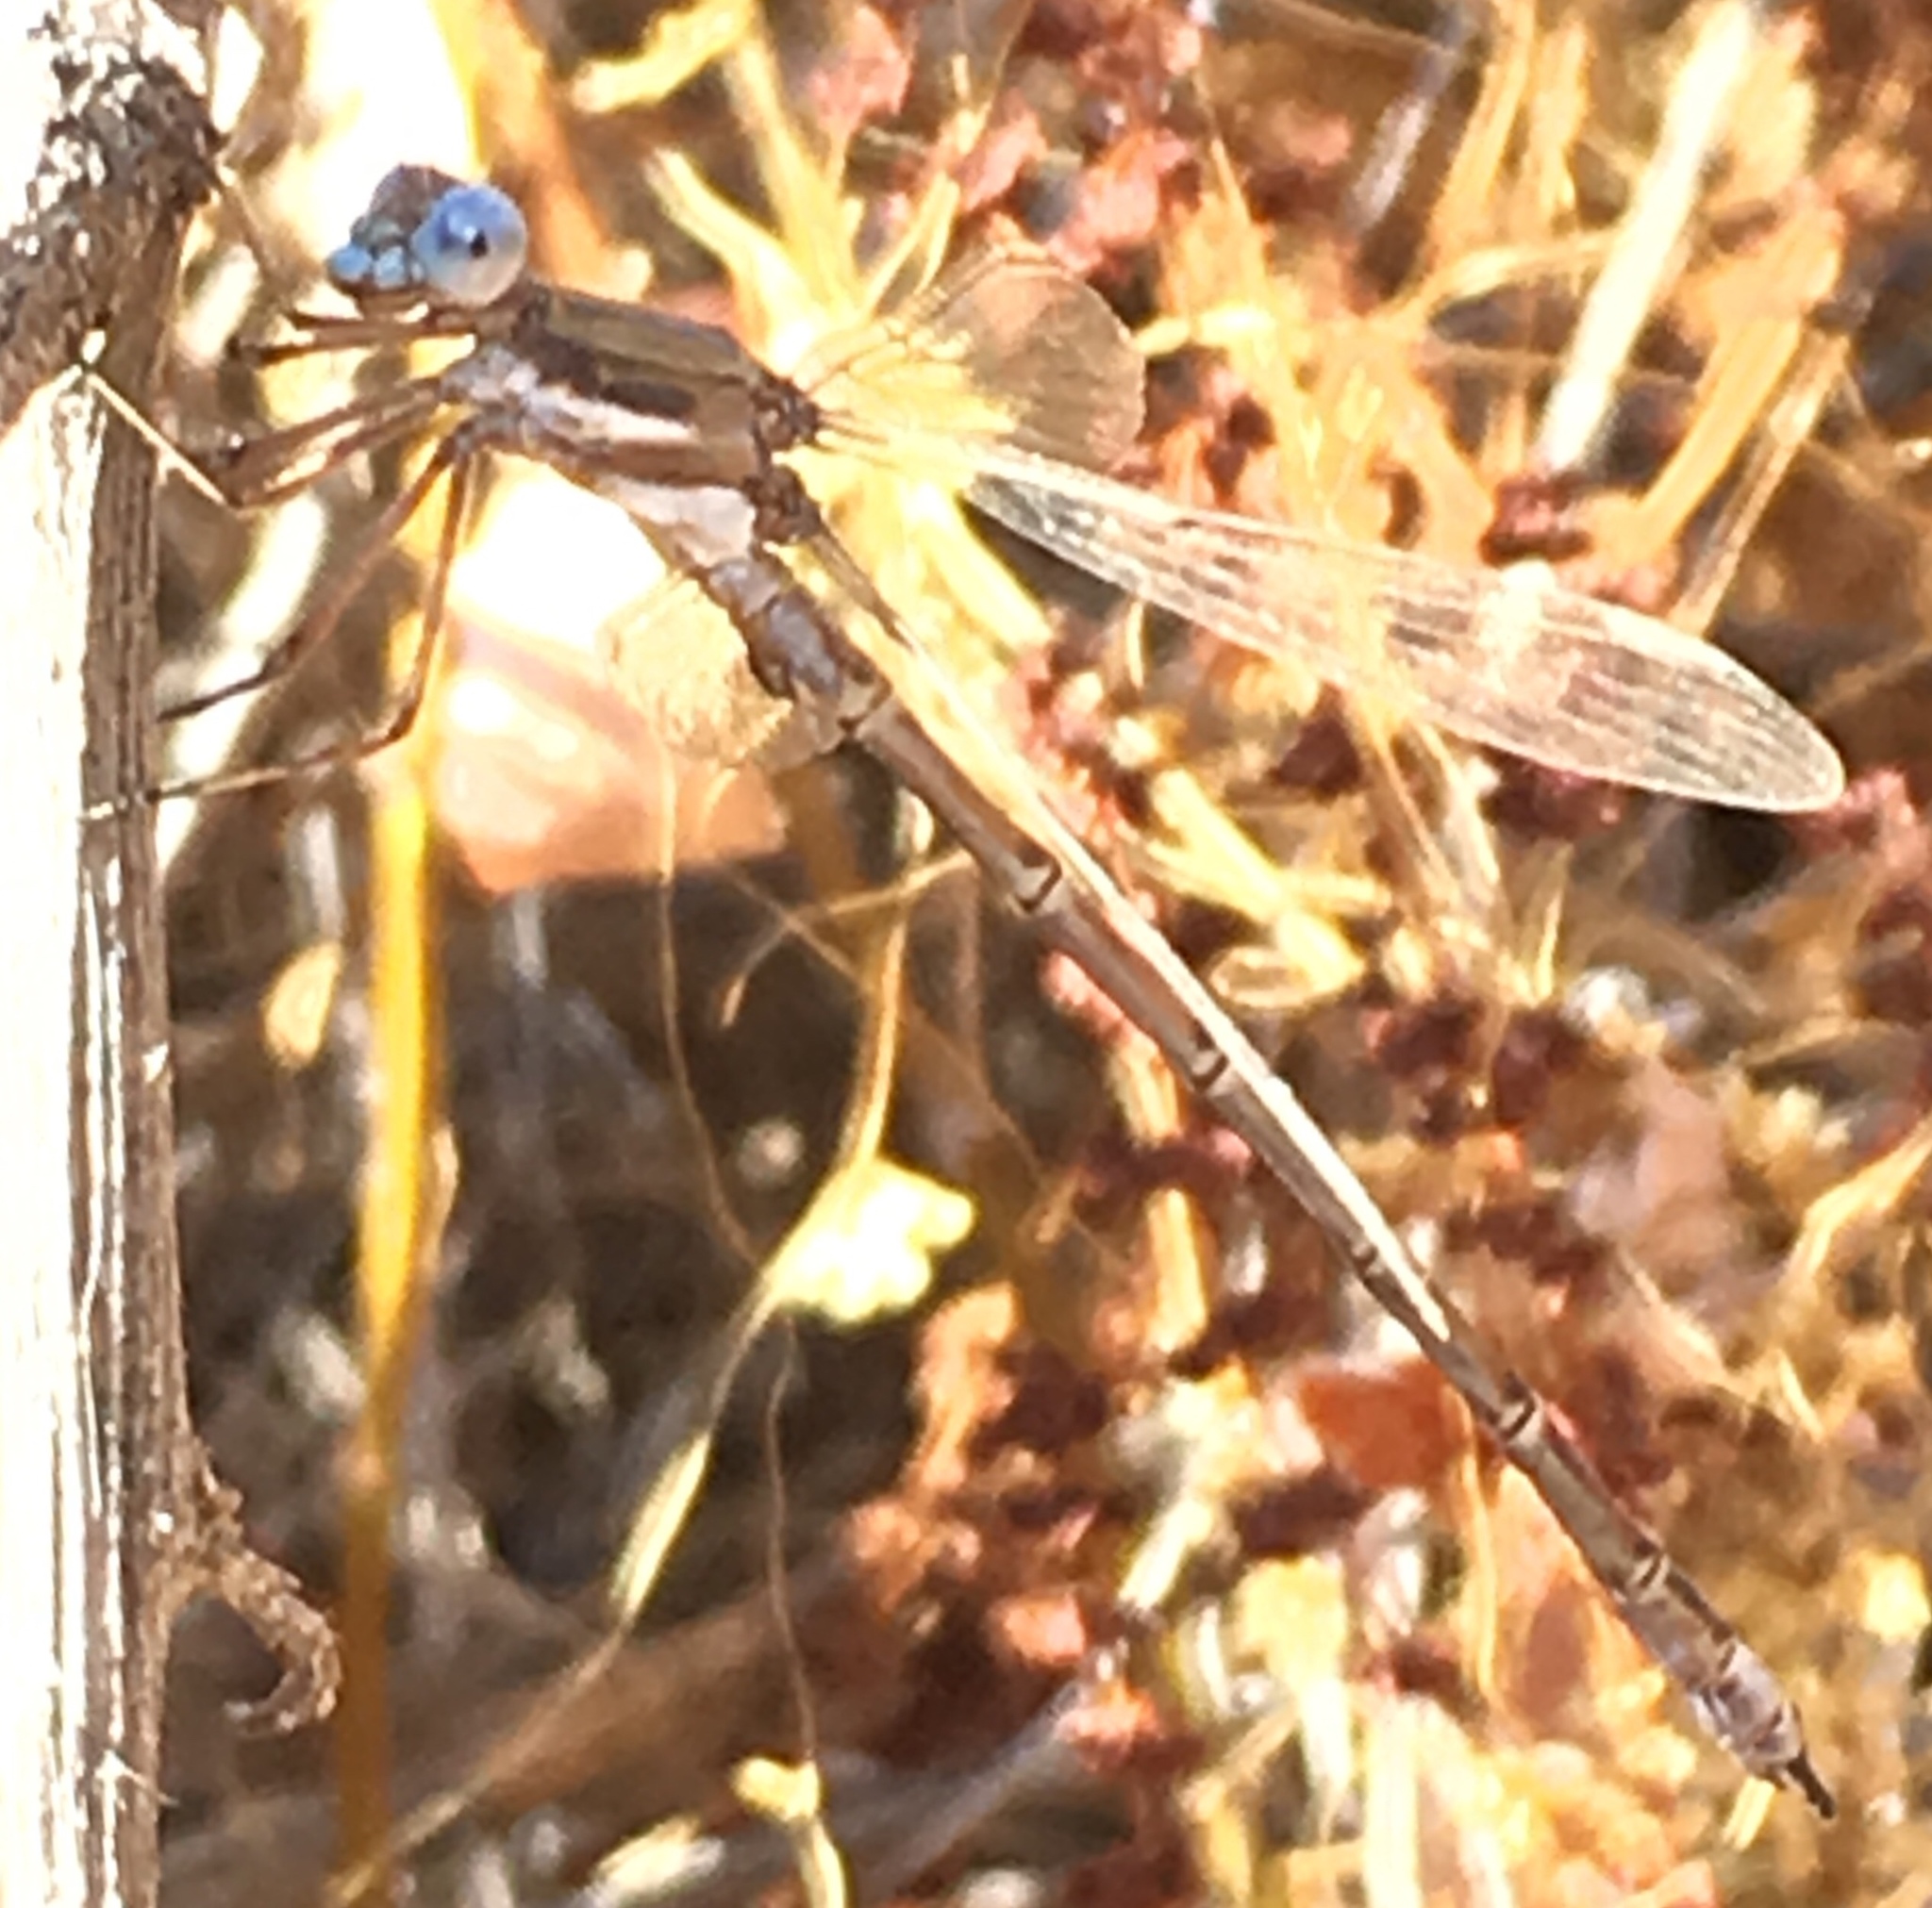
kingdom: Animalia
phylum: Arthropoda
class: Insecta
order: Odonata
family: Lestidae
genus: Archilestes
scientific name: Archilestes californicus
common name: California spreadwing
